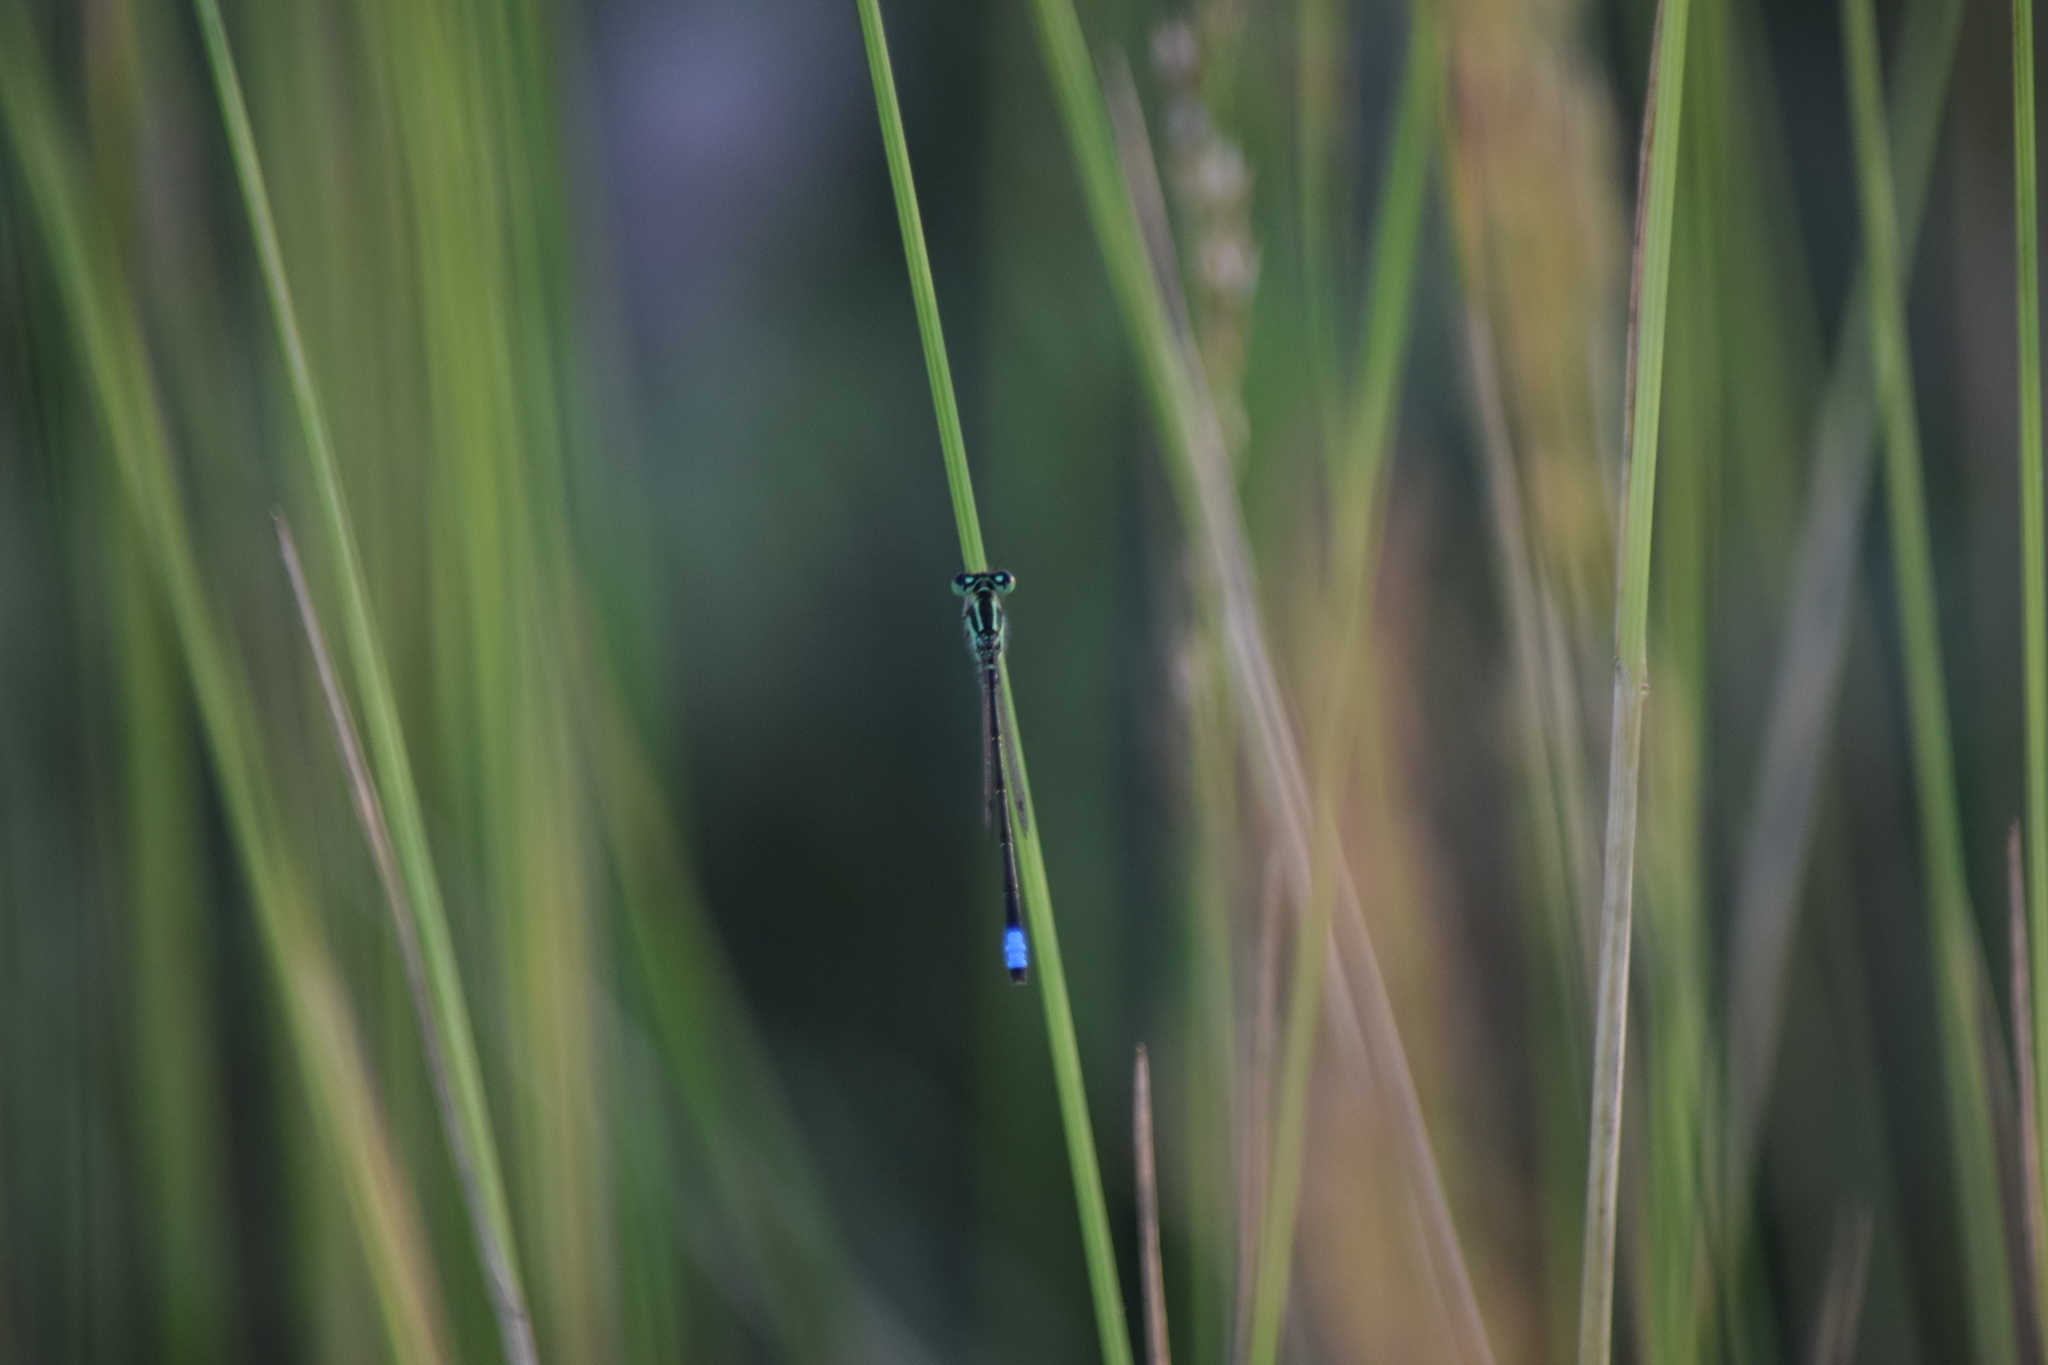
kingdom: Animalia
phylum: Arthropoda
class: Insecta
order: Odonata
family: Coenagrionidae
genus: Ischnura
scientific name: Ischnura verticalis
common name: Eastern forktail
